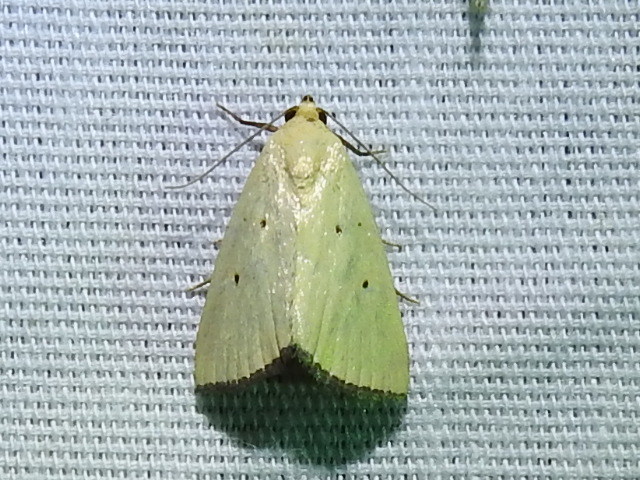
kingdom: Animalia
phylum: Arthropoda
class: Insecta
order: Lepidoptera
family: Noctuidae
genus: Marimatha
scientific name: Marimatha nigrofimbria
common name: Black-bordered lemon moth
